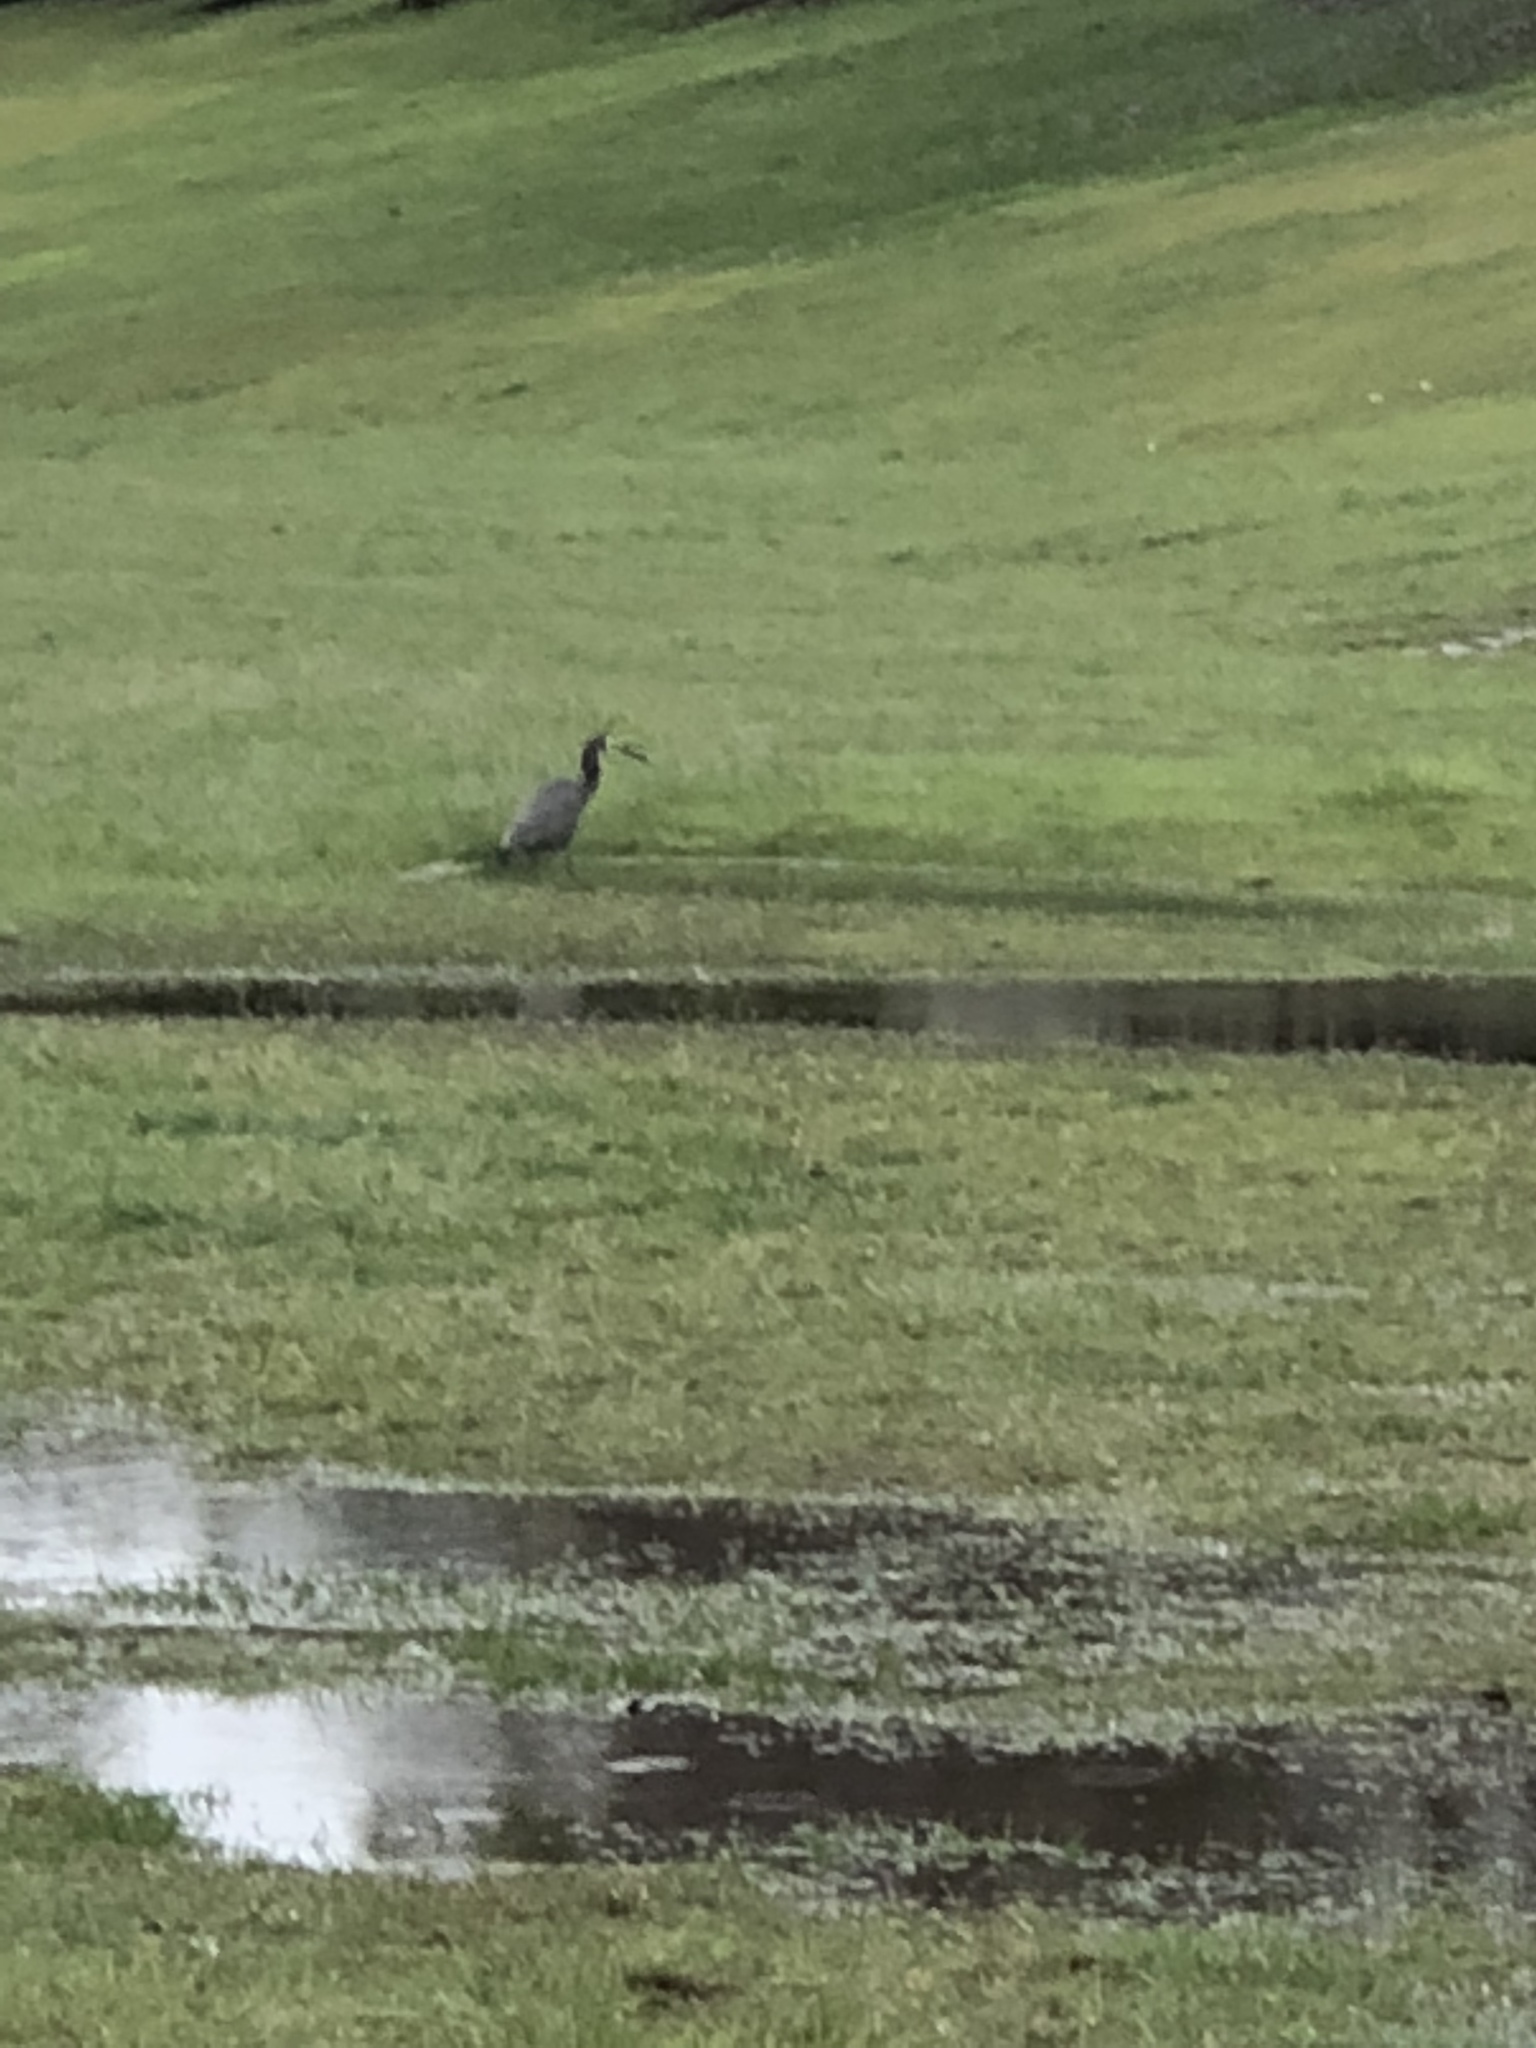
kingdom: Animalia
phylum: Chordata
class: Aves
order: Pelecaniformes
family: Ardeidae
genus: Egretta
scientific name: Egretta novaehollandiae
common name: White-faced heron
